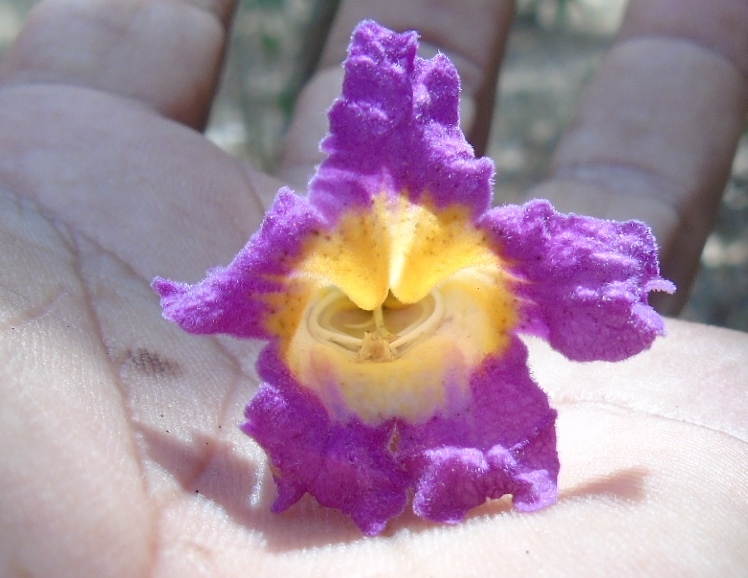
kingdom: Plantae
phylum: Tracheophyta
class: Magnoliopsida
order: Lamiales
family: Bignoniaceae
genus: Handroanthus
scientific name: Handroanthus impetiginosum
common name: Pink trumpet tree
